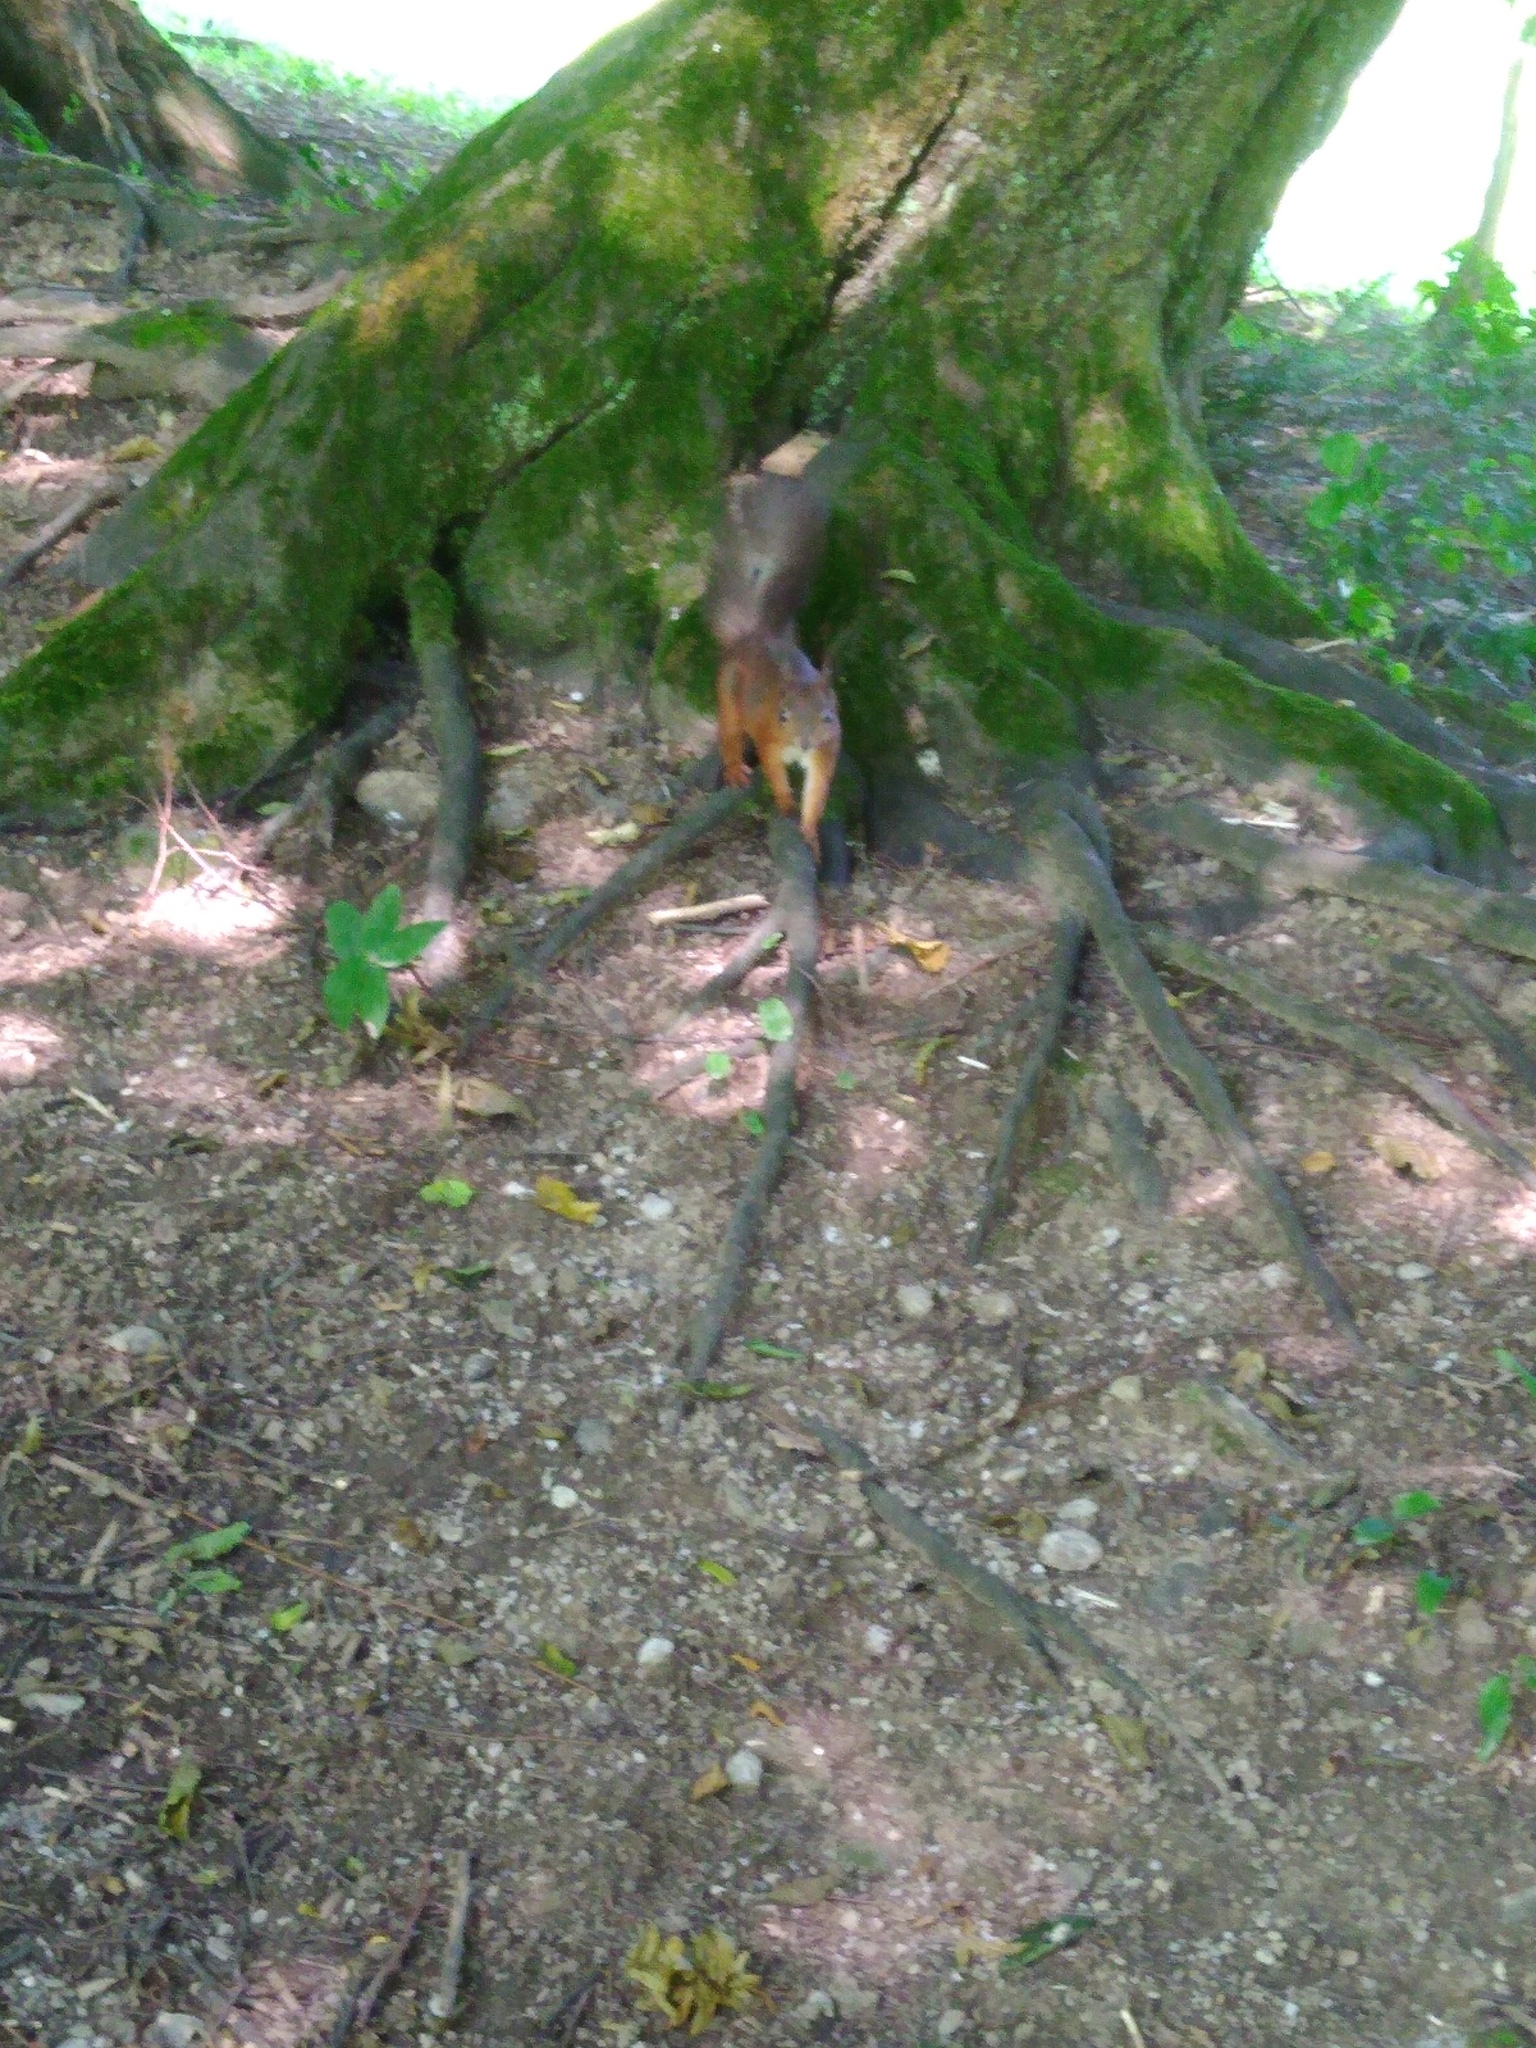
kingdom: Animalia
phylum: Chordata
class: Mammalia
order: Rodentia
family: Sciuridae
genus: Sciurus
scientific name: Sciurus vulgaris
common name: Eurasian red squirrel
